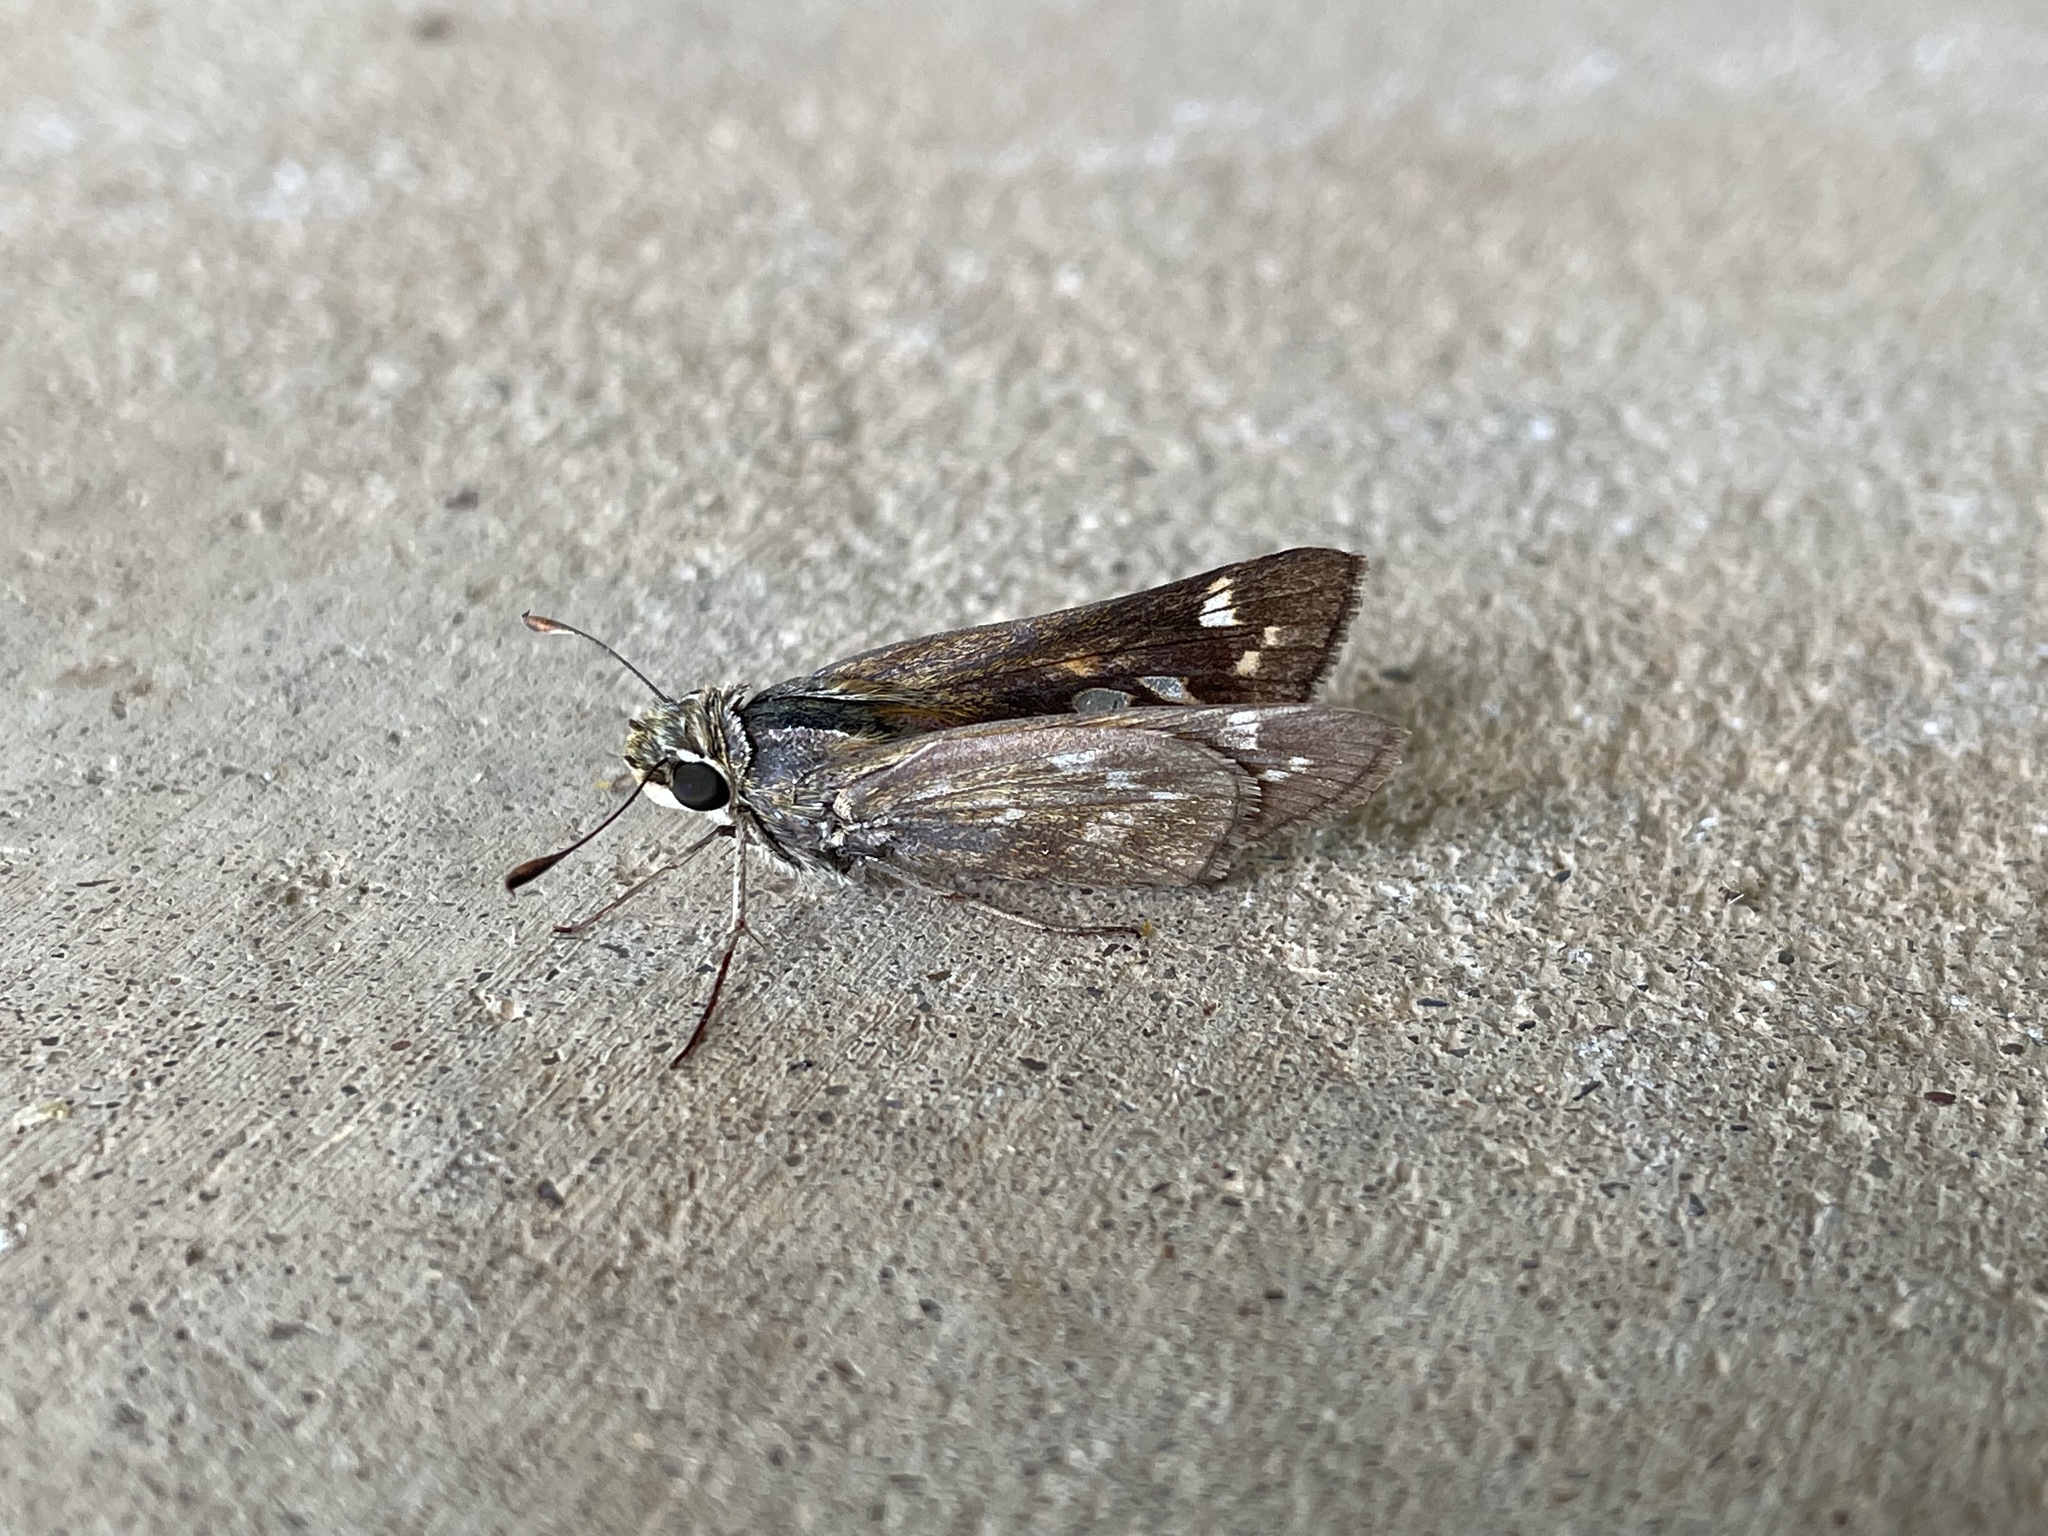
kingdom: Animalia
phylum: Arthropoda
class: Insecta
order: Lepidoptera
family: Hesperiidae
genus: Atalopedes
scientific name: Atalopedes
